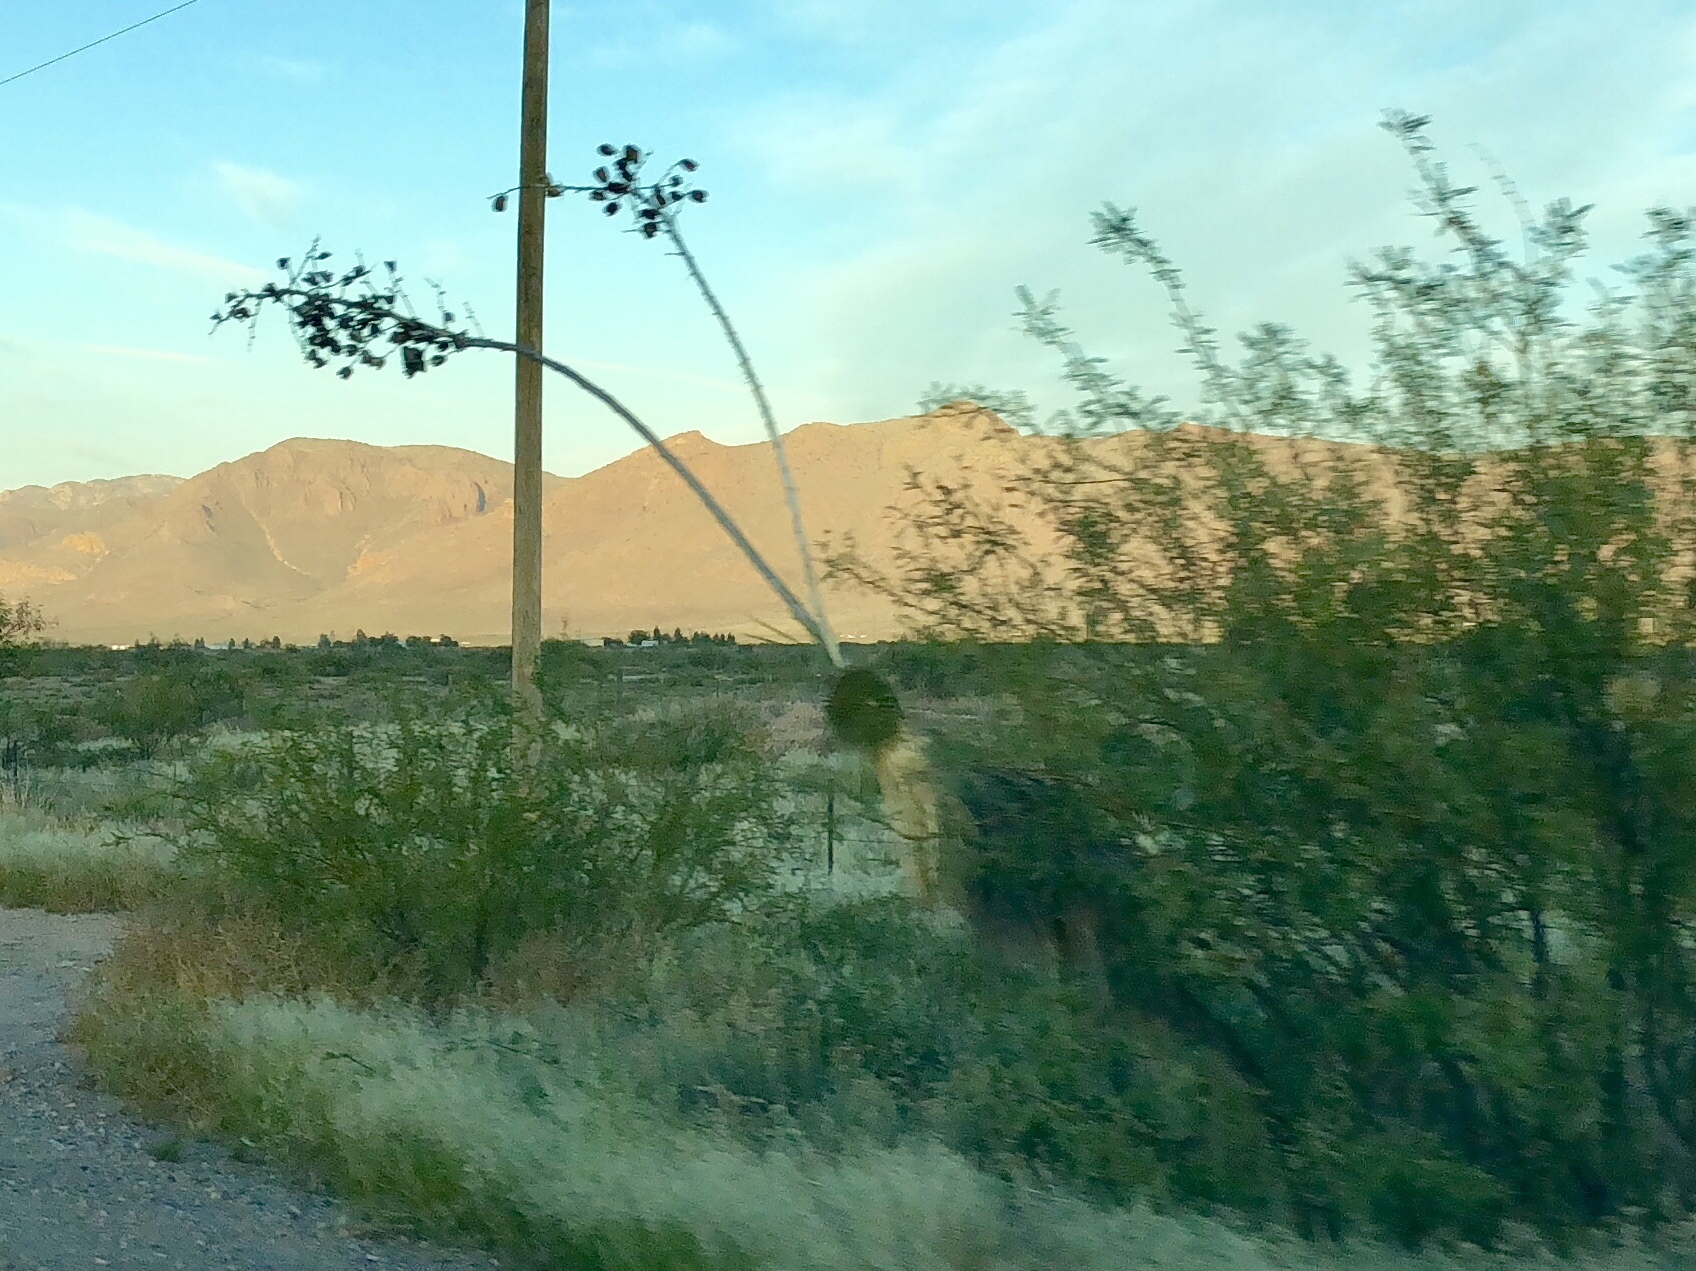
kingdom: Plantae
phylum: Tracheophyta
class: Liliopsida
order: Asparagales
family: Asparagaceae
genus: Yucca
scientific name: Yucca elata
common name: Palmella
